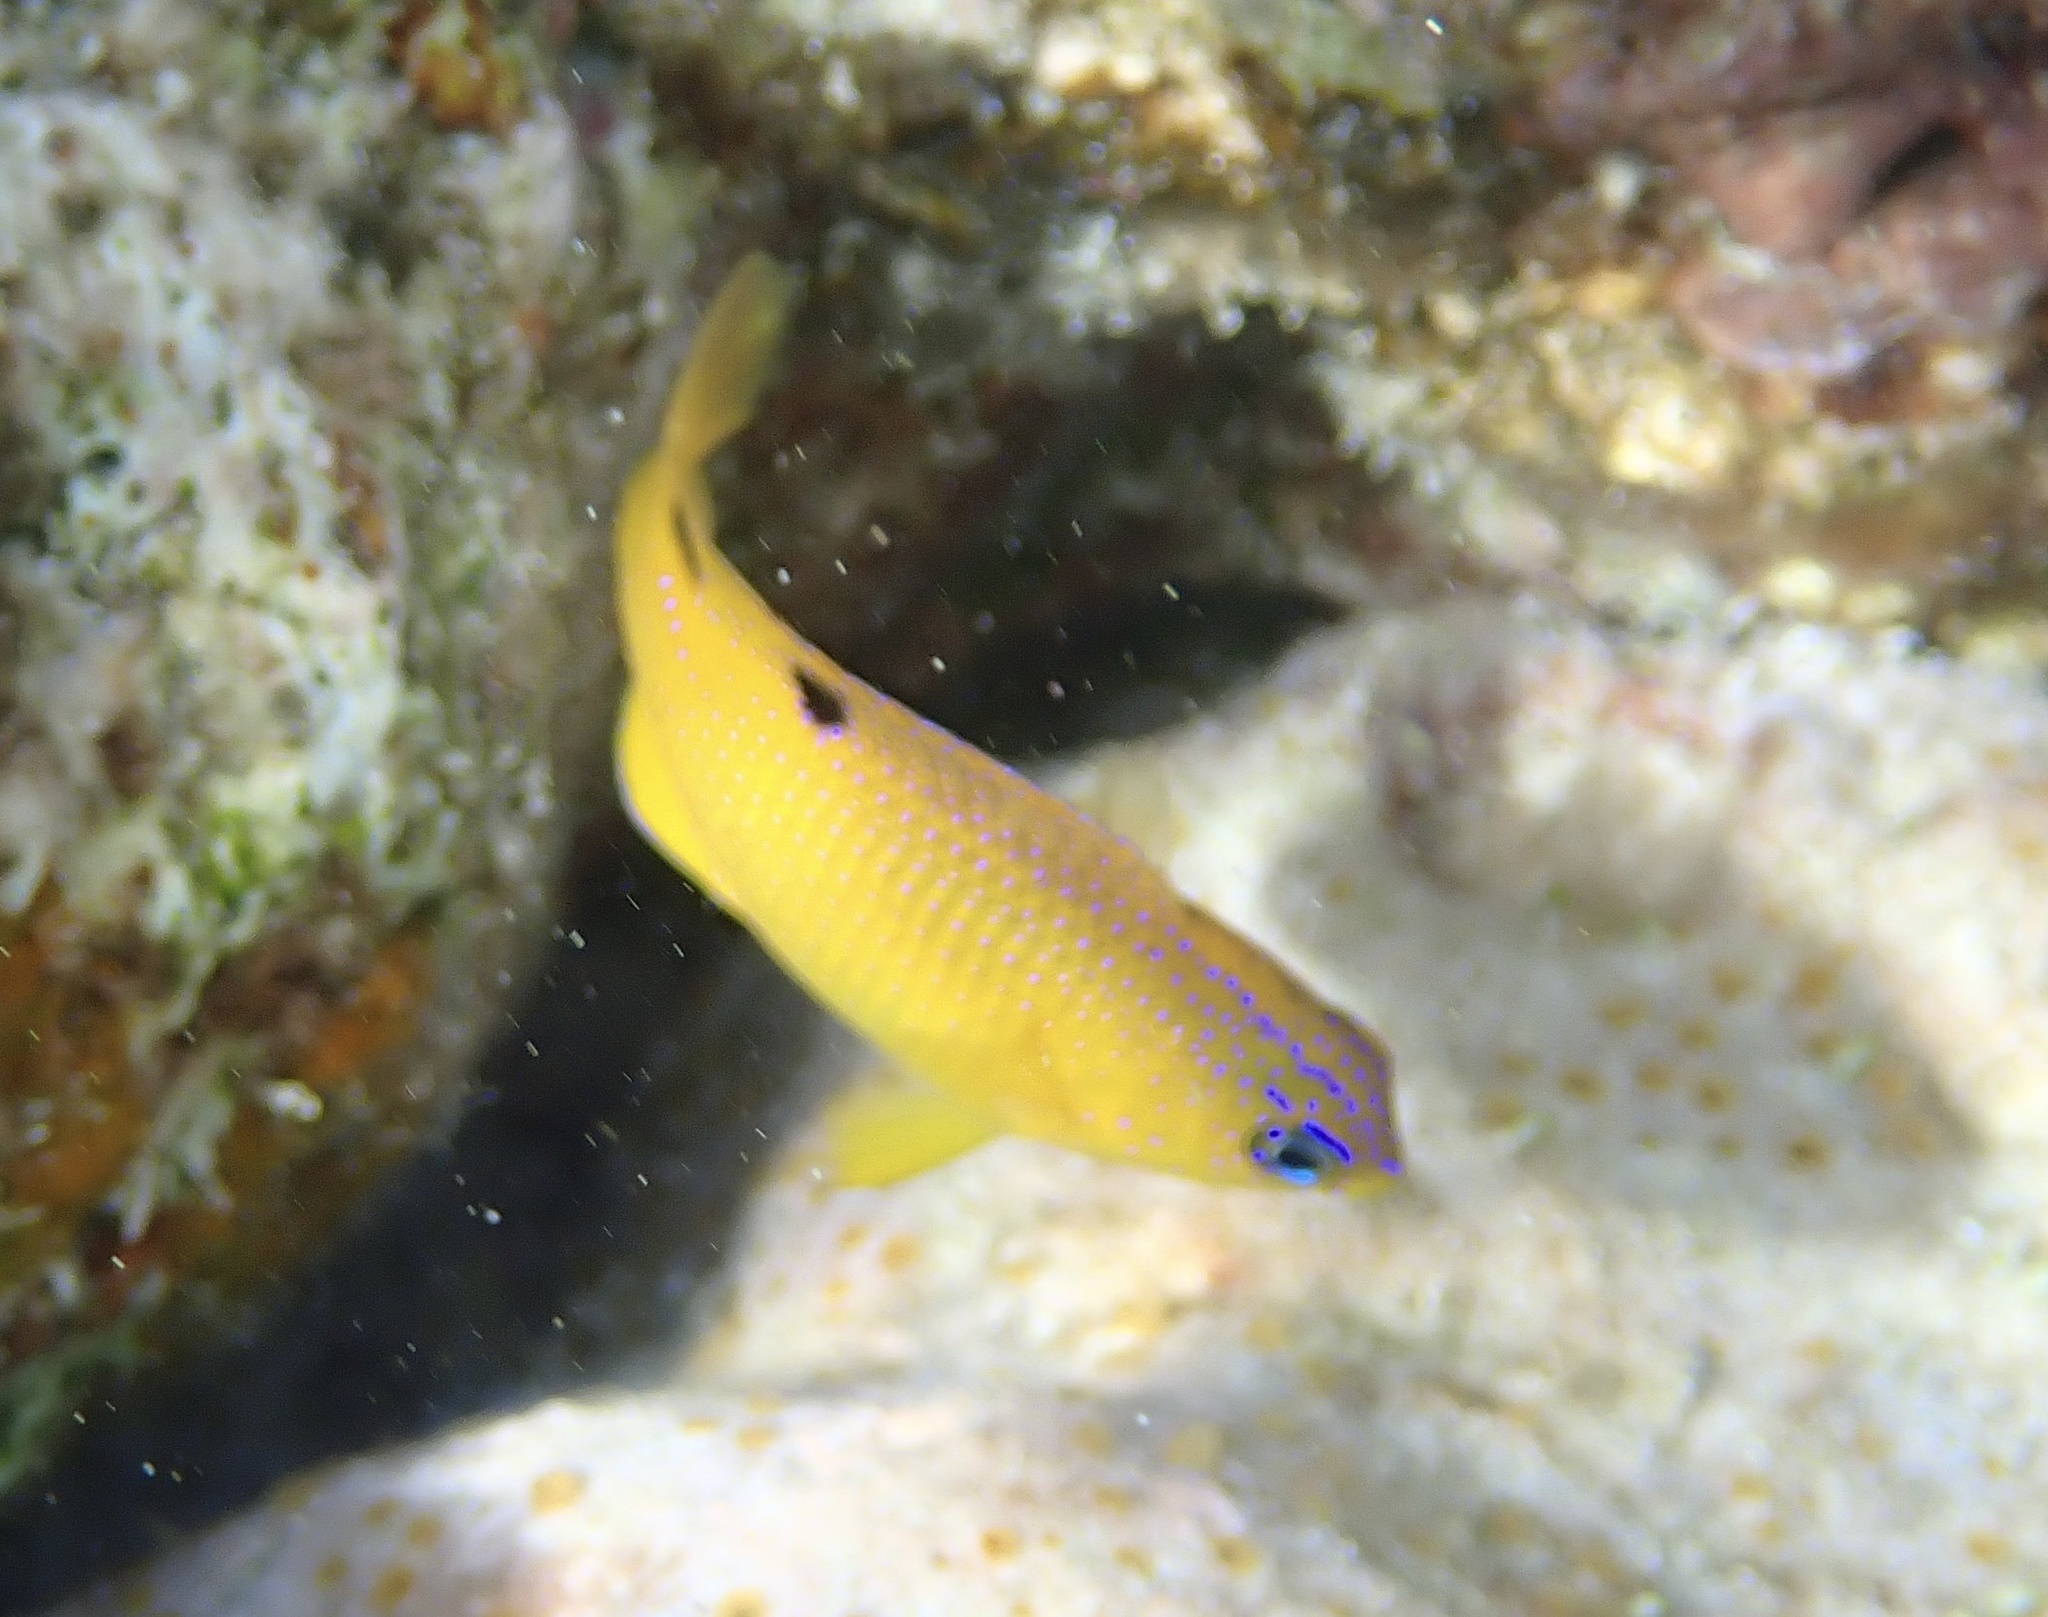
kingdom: Animalia
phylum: Chordata
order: Perciformes
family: Pomacentridae
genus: Stegastes
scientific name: Stegastes diencaeus
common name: Longfin damselfish
